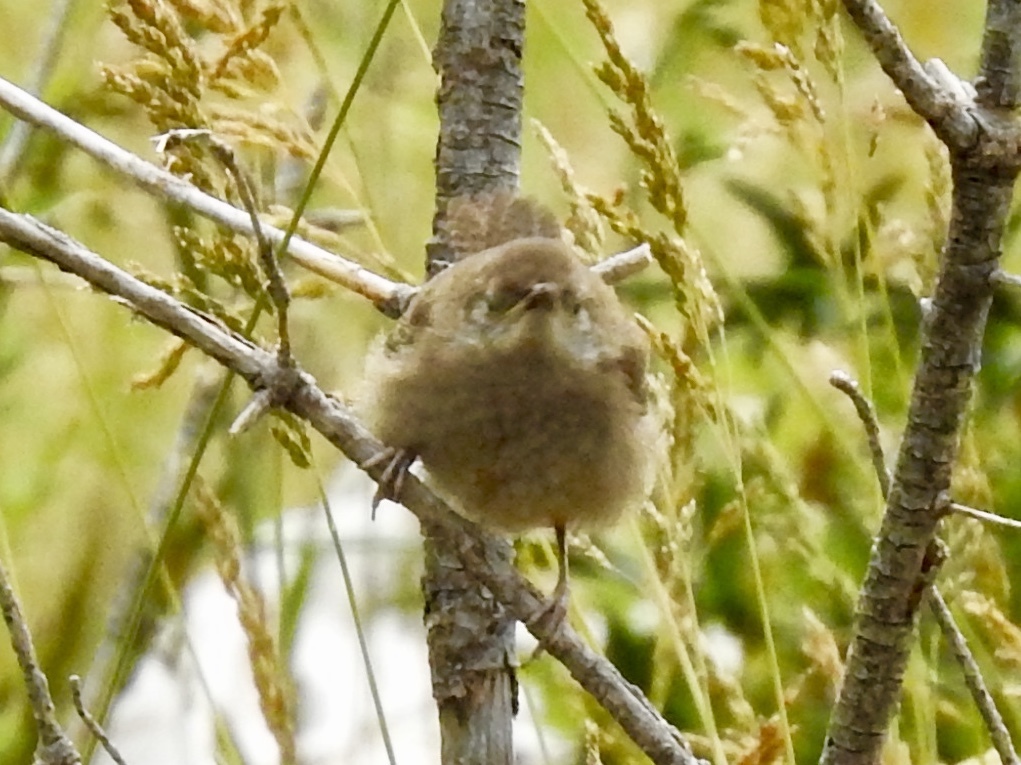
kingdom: Animalia
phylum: Chordata
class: Aves
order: Passeriformes
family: Troglodytidae
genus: Troglodytes
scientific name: Troglodytes aedon
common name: House wren
